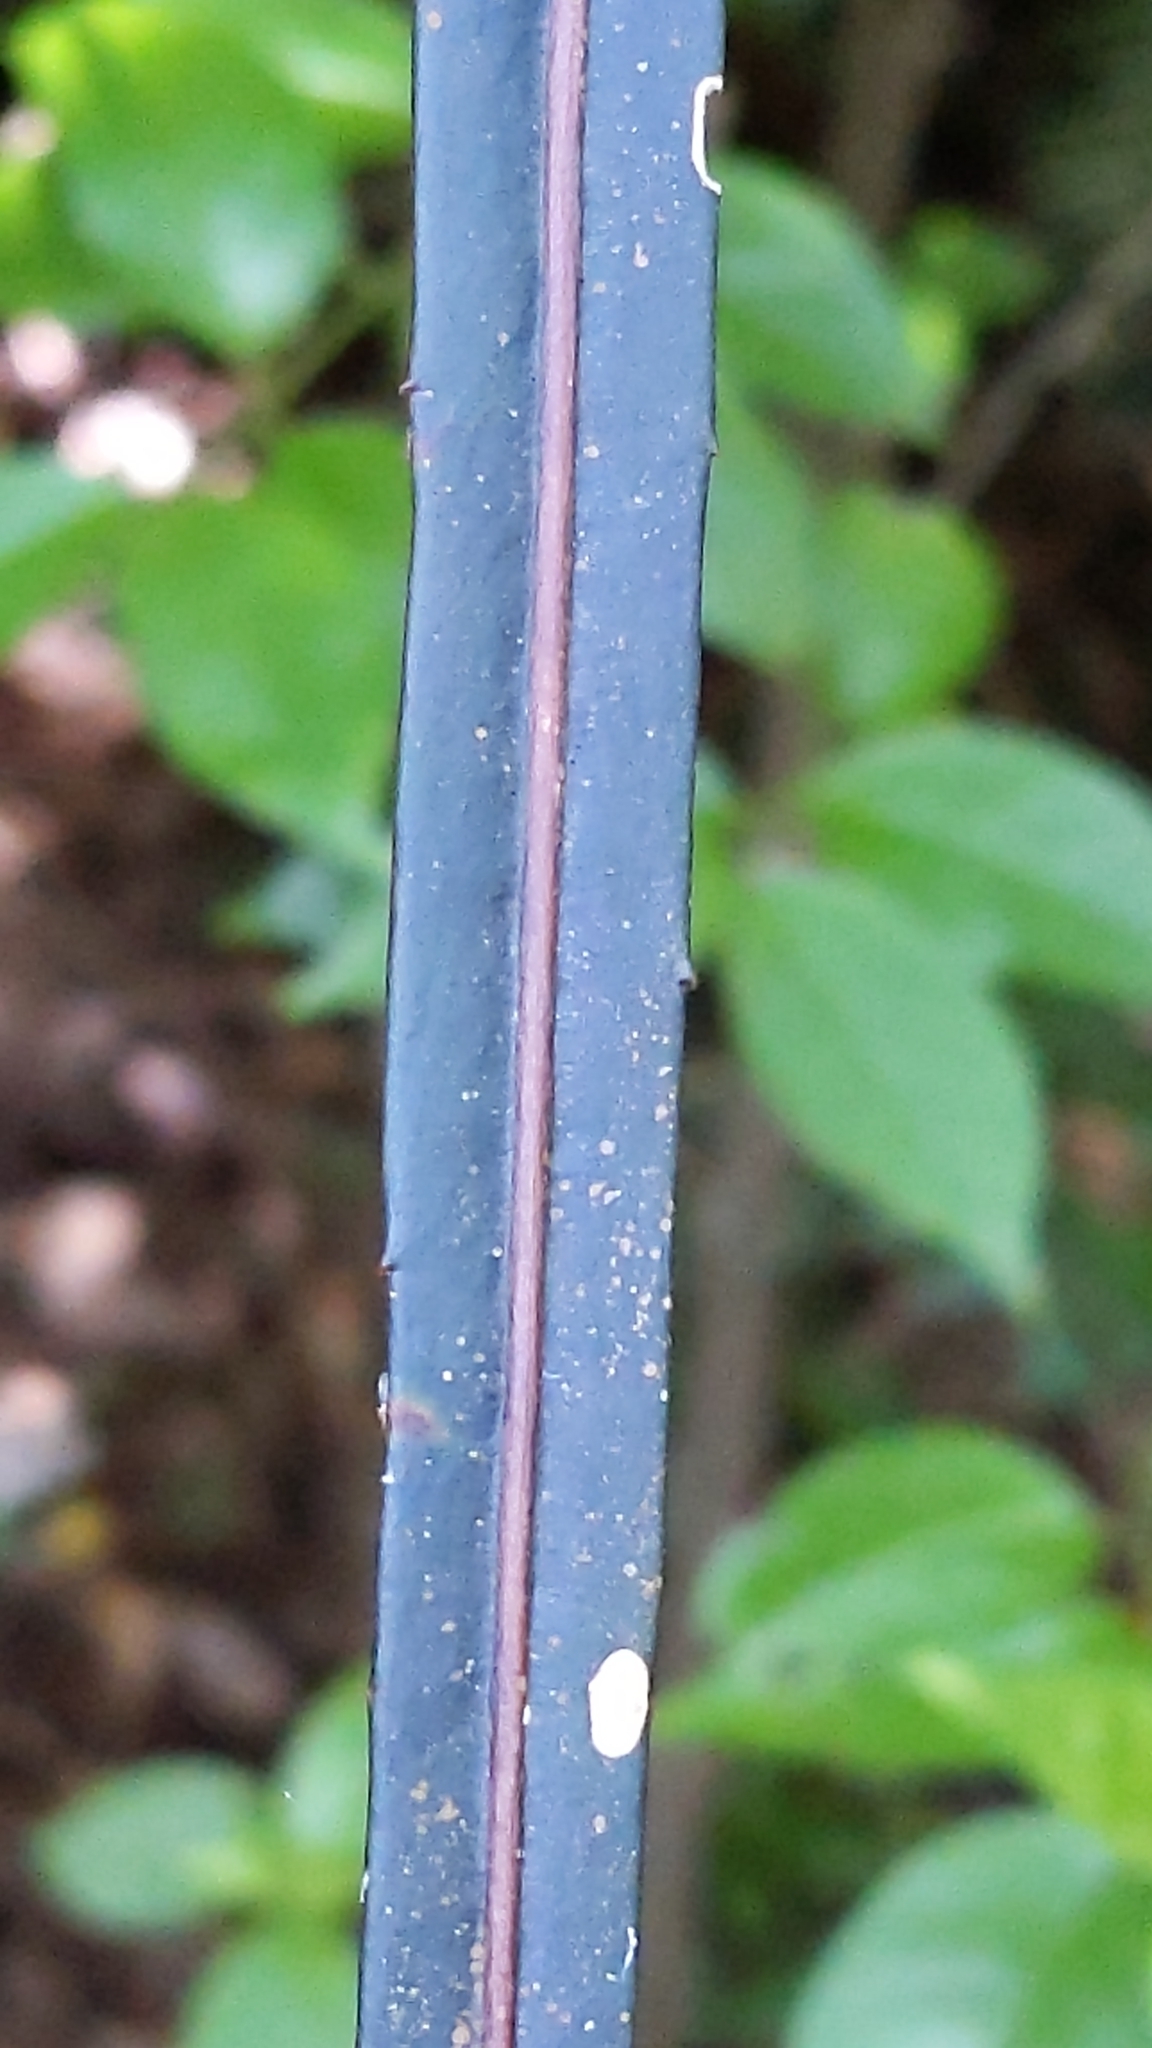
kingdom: Plantae
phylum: Tracheophyta
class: Magnoliopsida
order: Apiales
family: Araliaceae
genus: Pseudopanax
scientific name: Pseudopanax crassifolius
